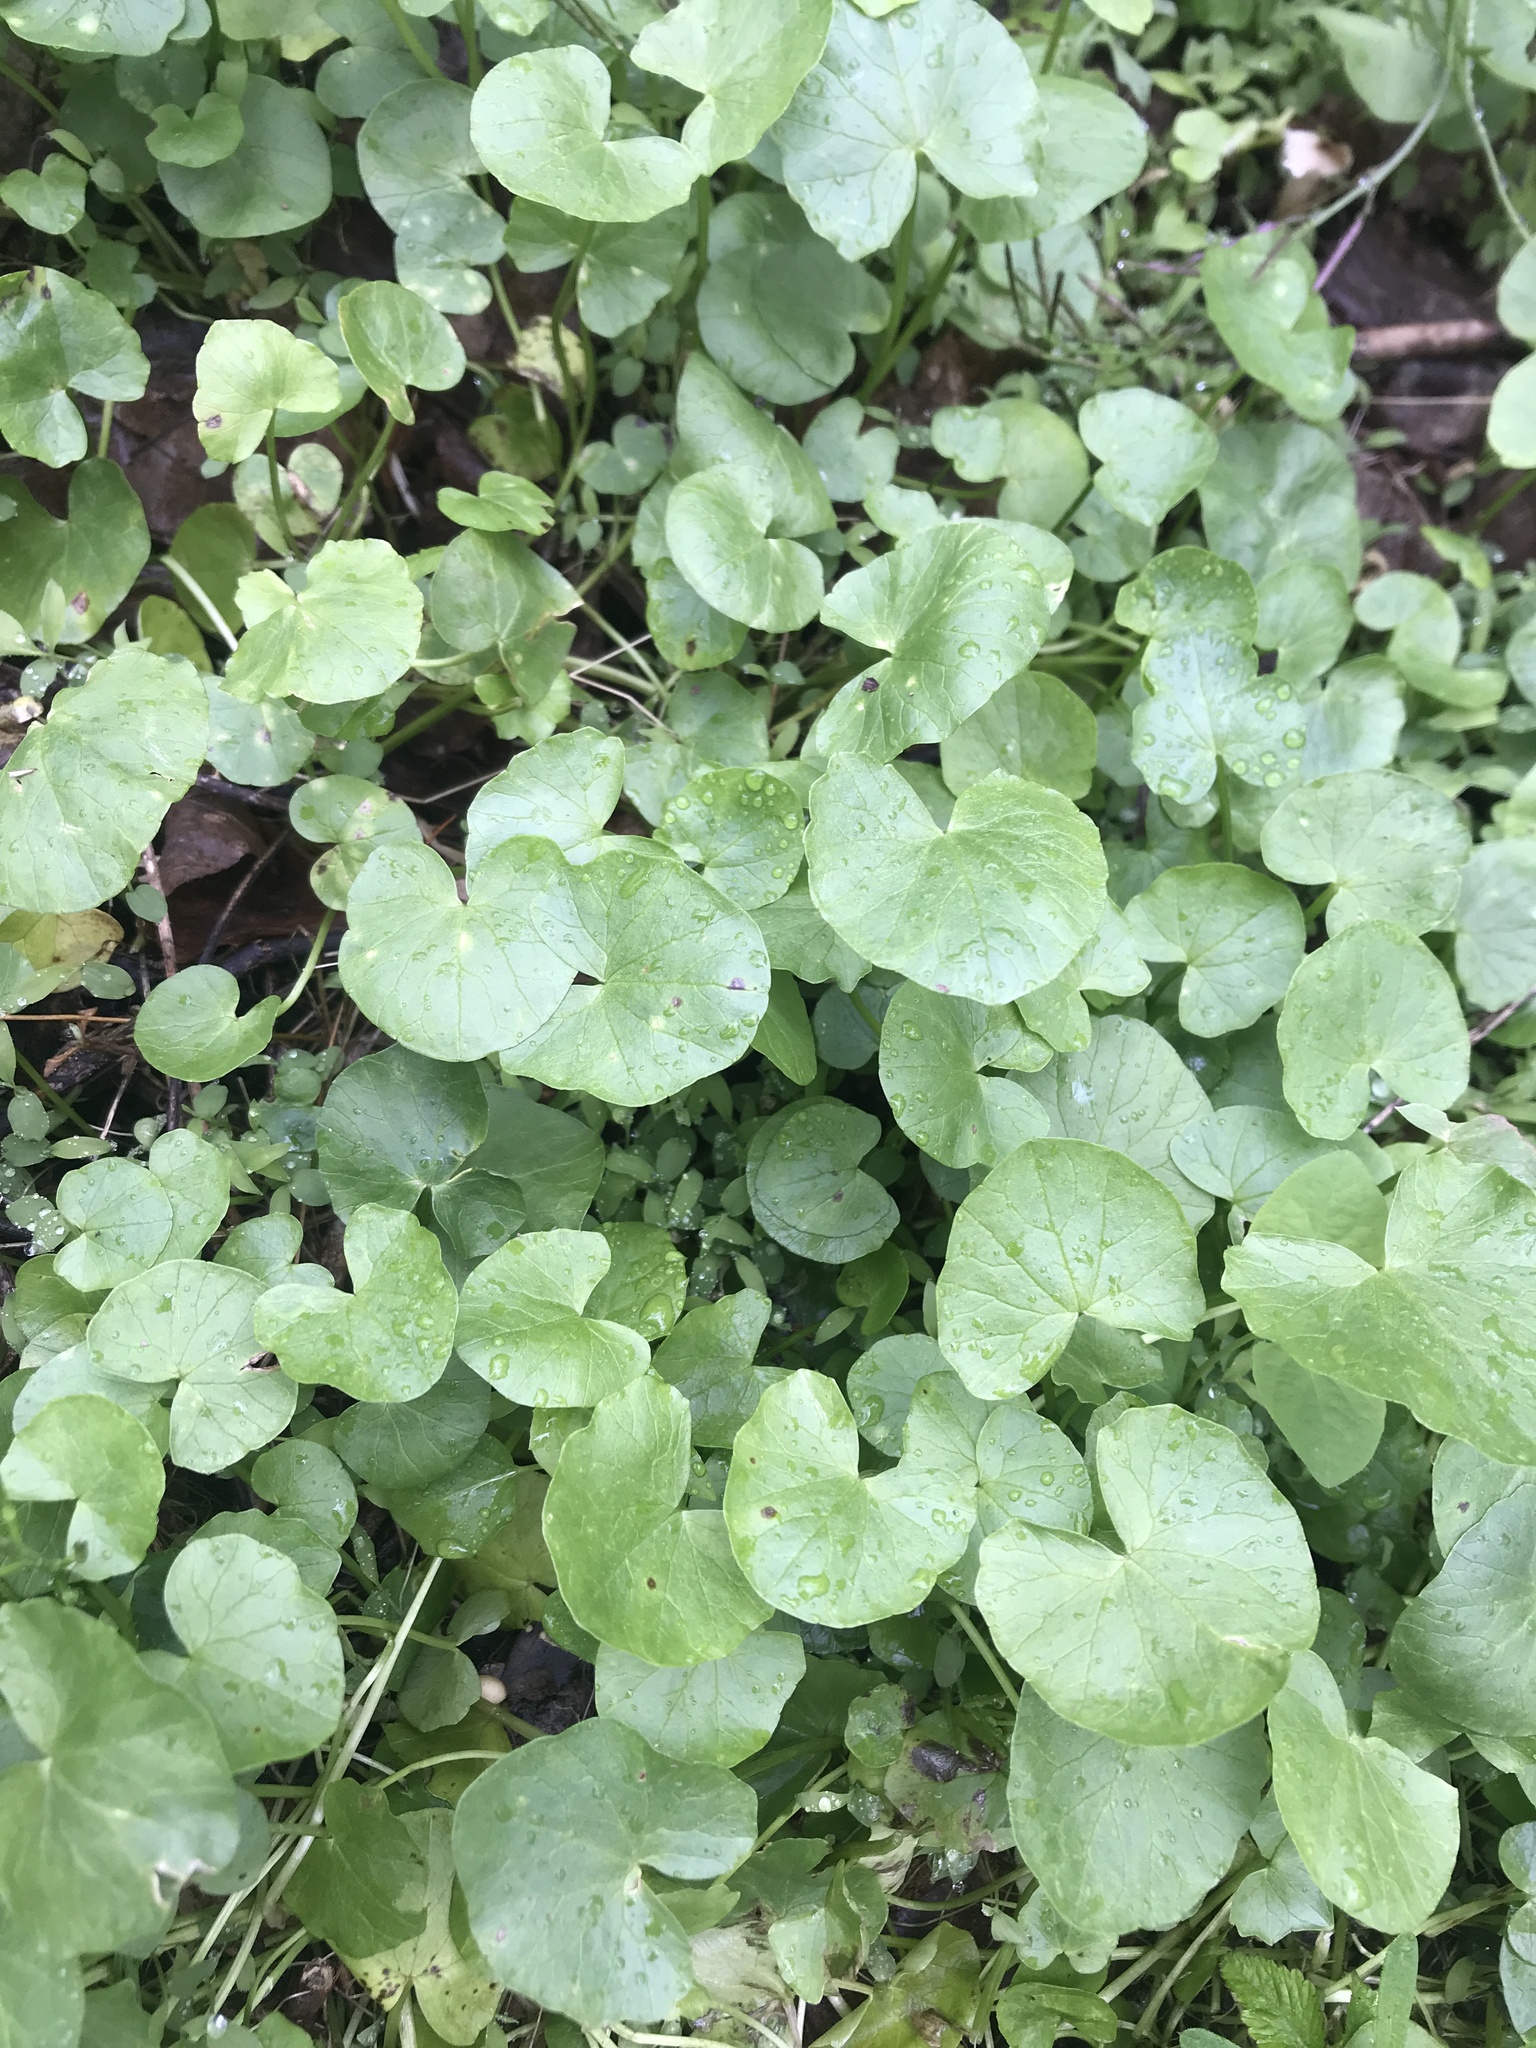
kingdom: Plantae
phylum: Tracheophyta
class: Magnoliopsida
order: Ranunculales
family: Ranunculaceae
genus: Ficaria
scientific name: Ficaria verna
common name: Lesser celandine
